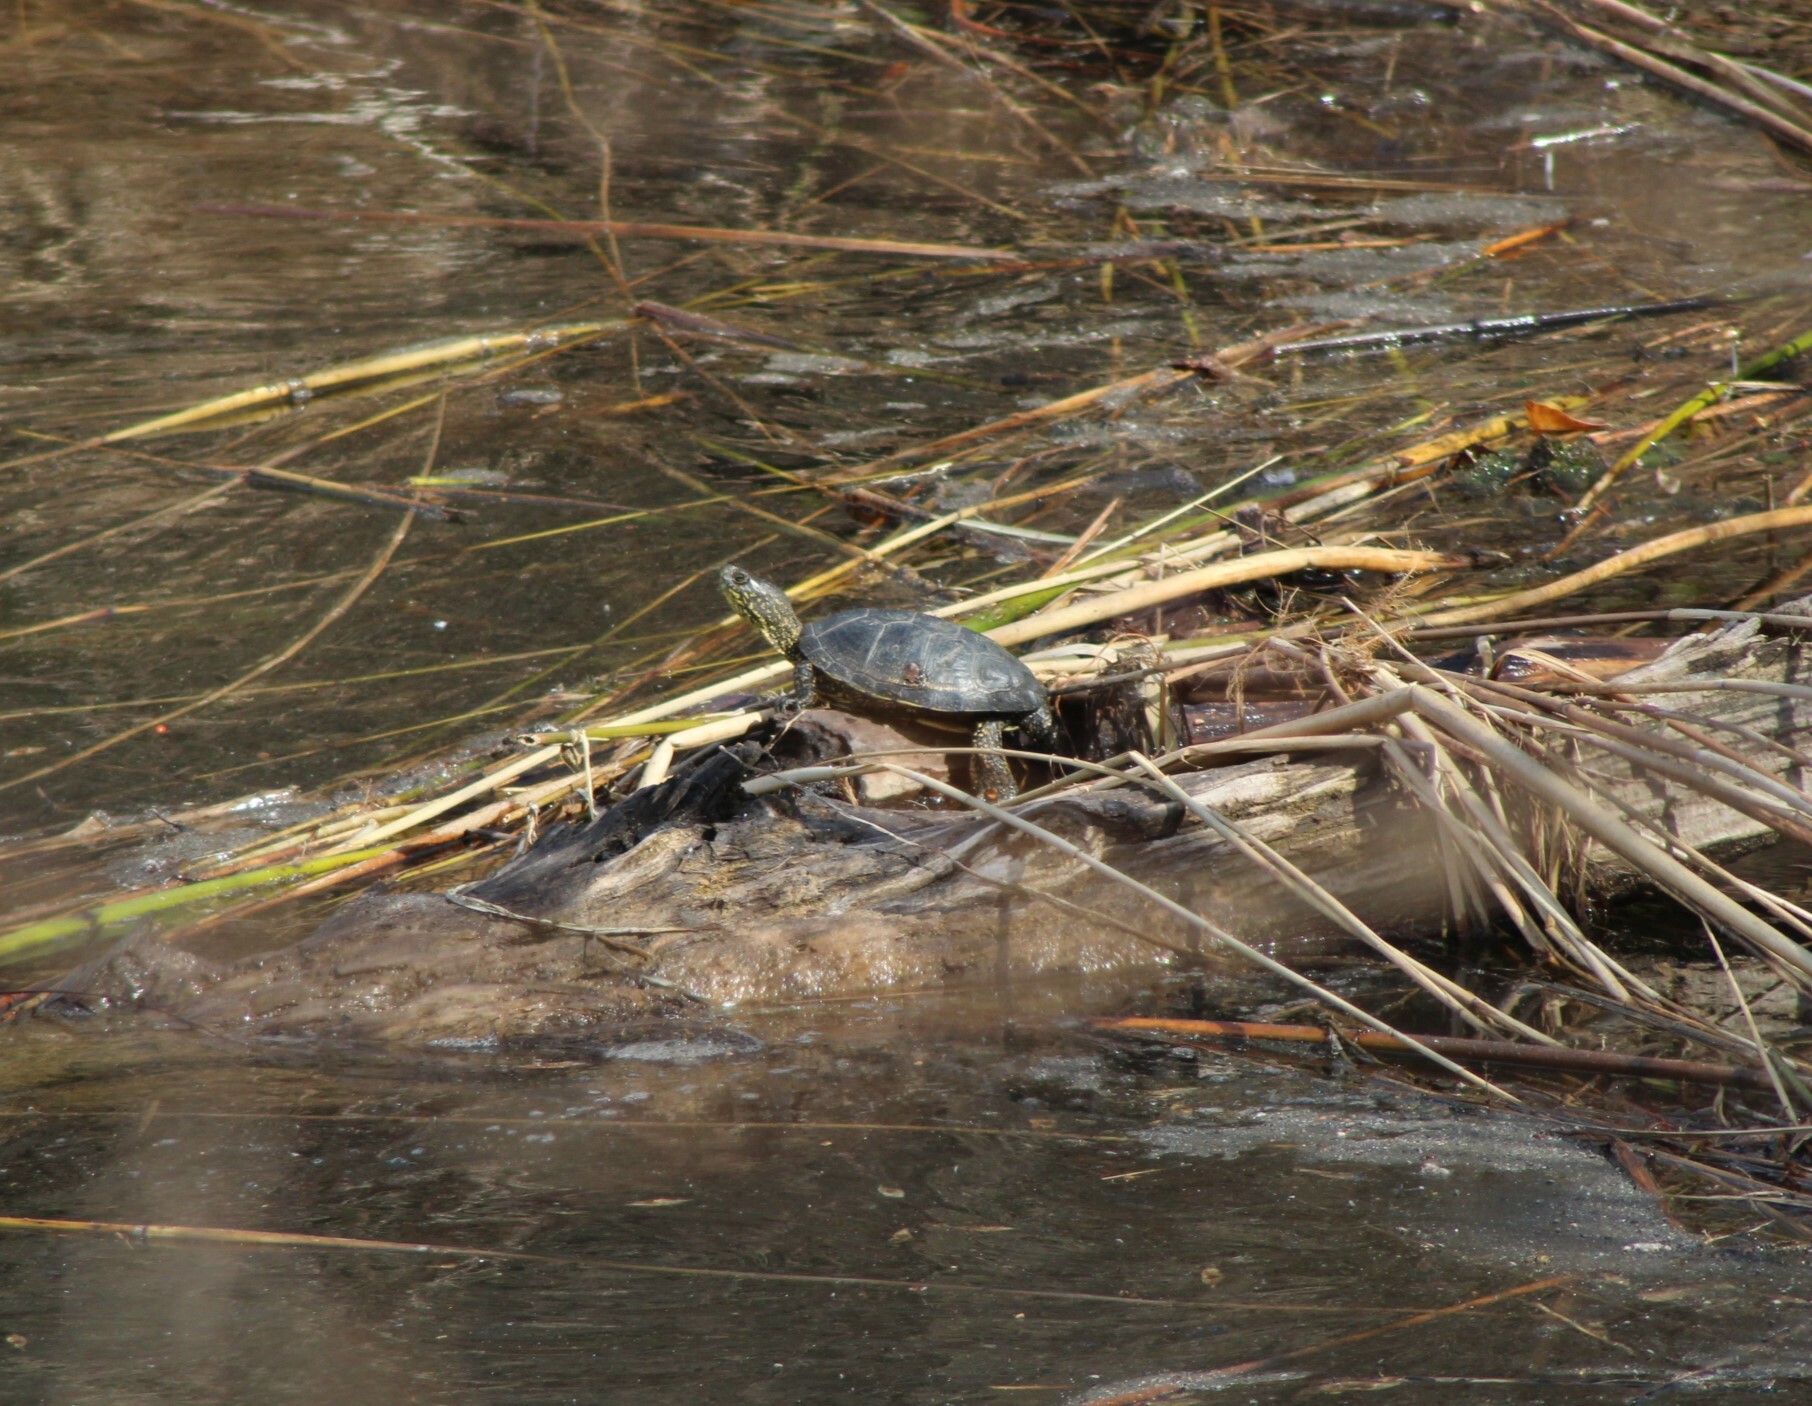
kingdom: Animalia
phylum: Chordata
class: Testudines
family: Emydidae
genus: Emys
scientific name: Emys orbicularis
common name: European pond turtle
